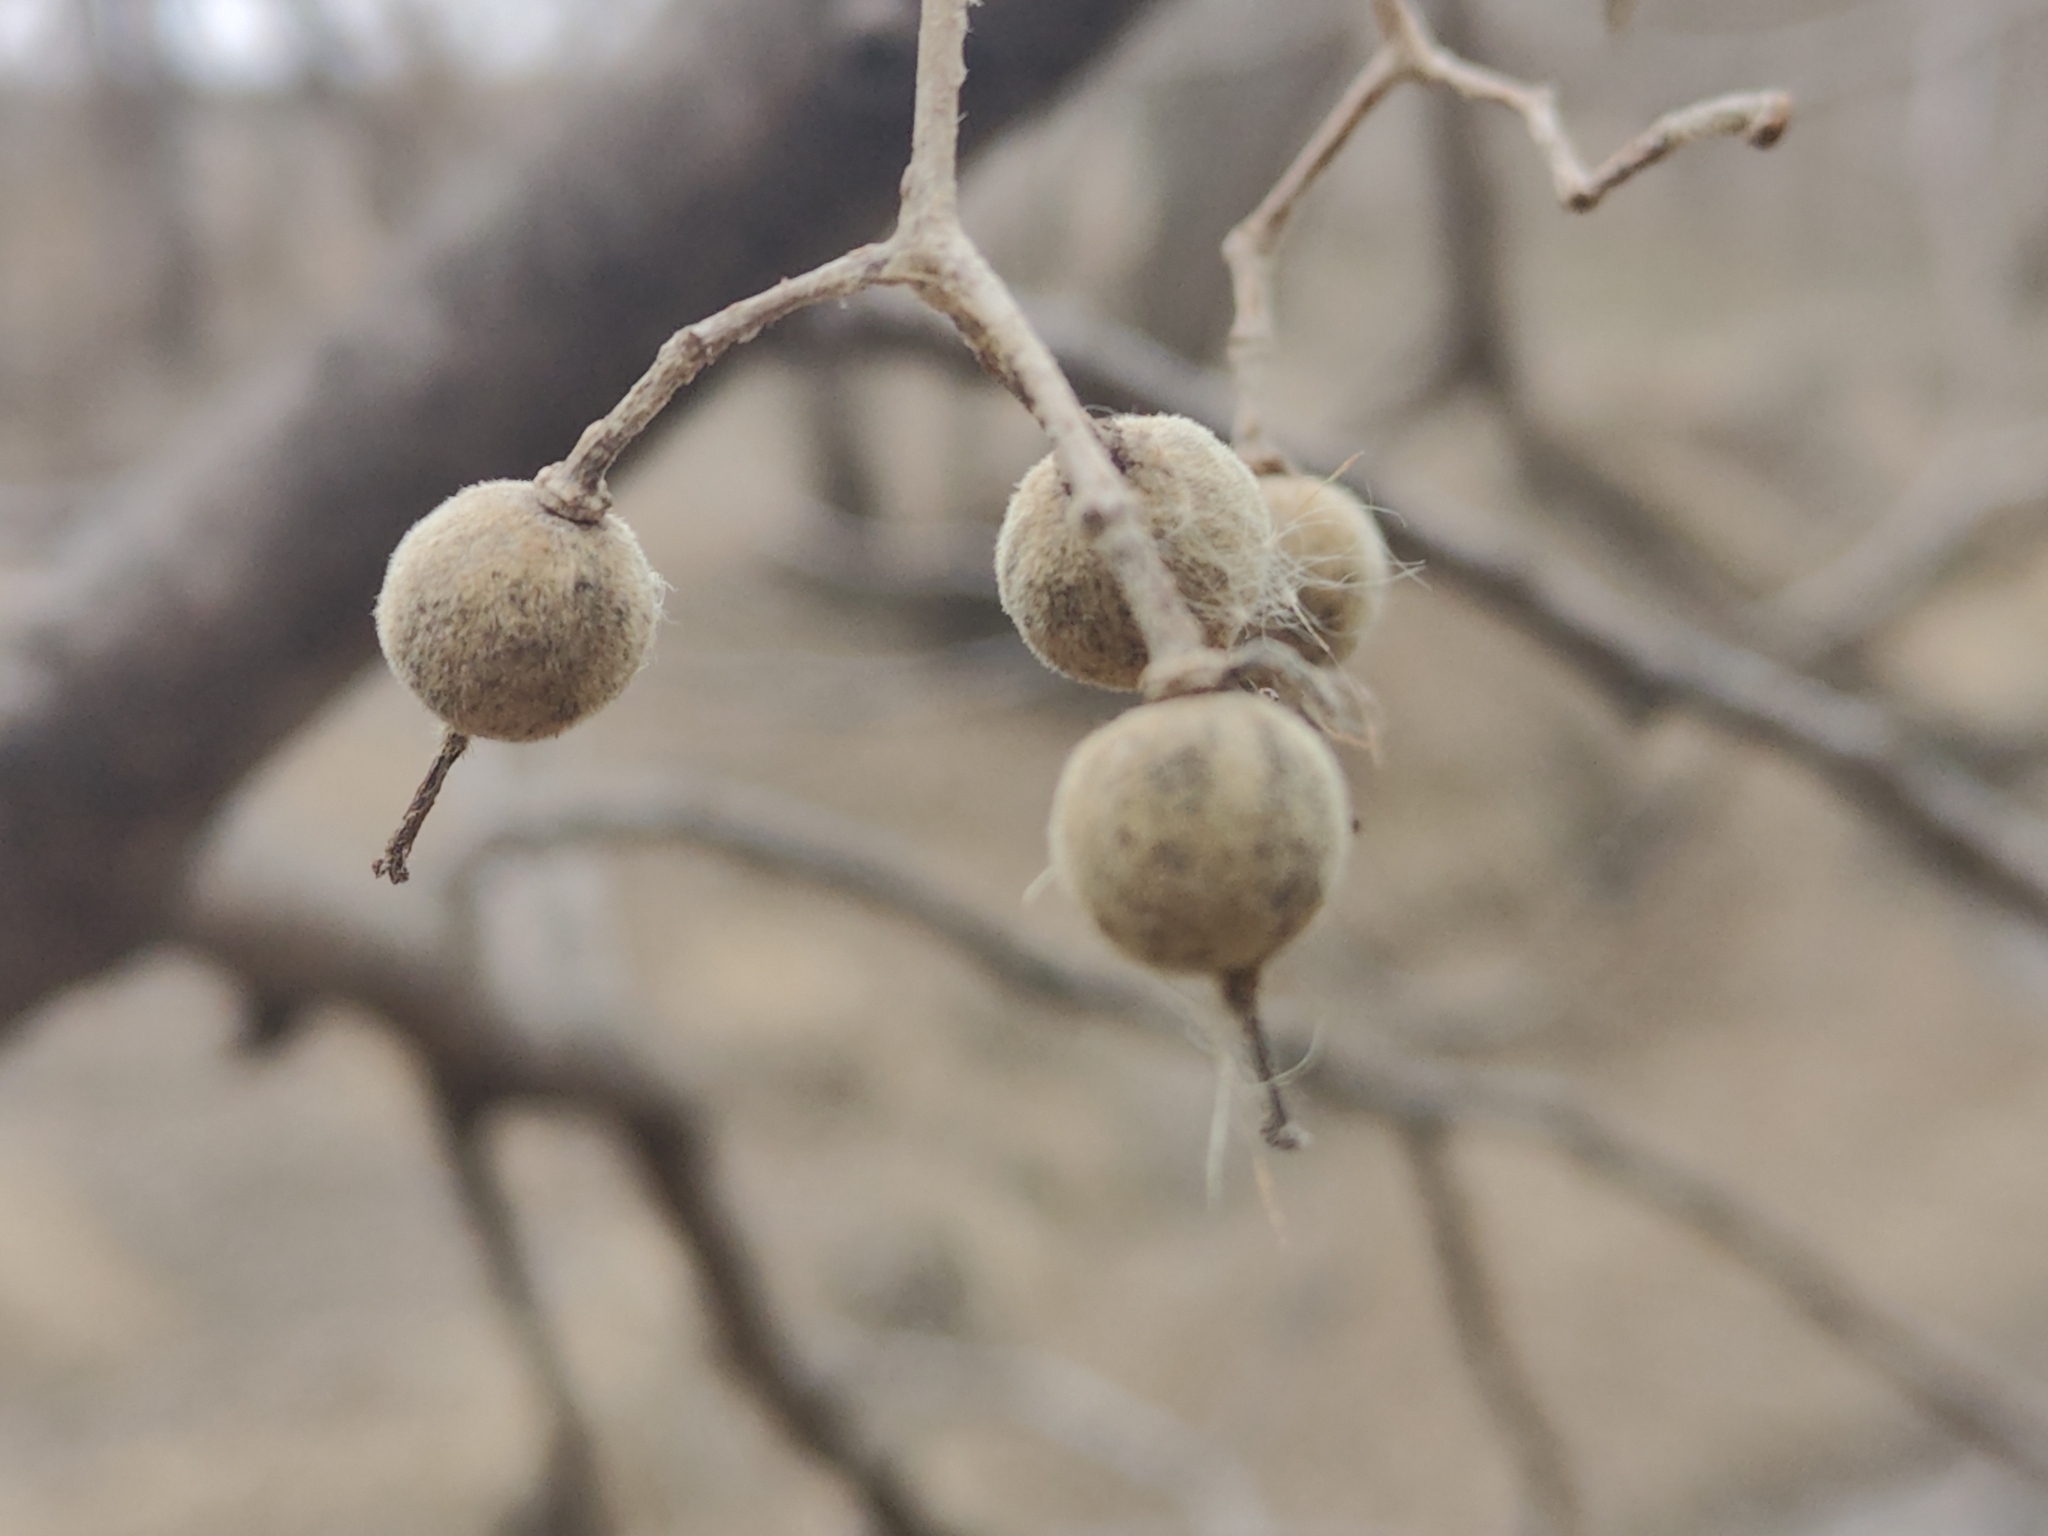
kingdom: Plantae
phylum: Tracheophyta
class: Magnoliopsida
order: Malvales
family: Malvaceae
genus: Tilia
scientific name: Tilia americana
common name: Basswood
